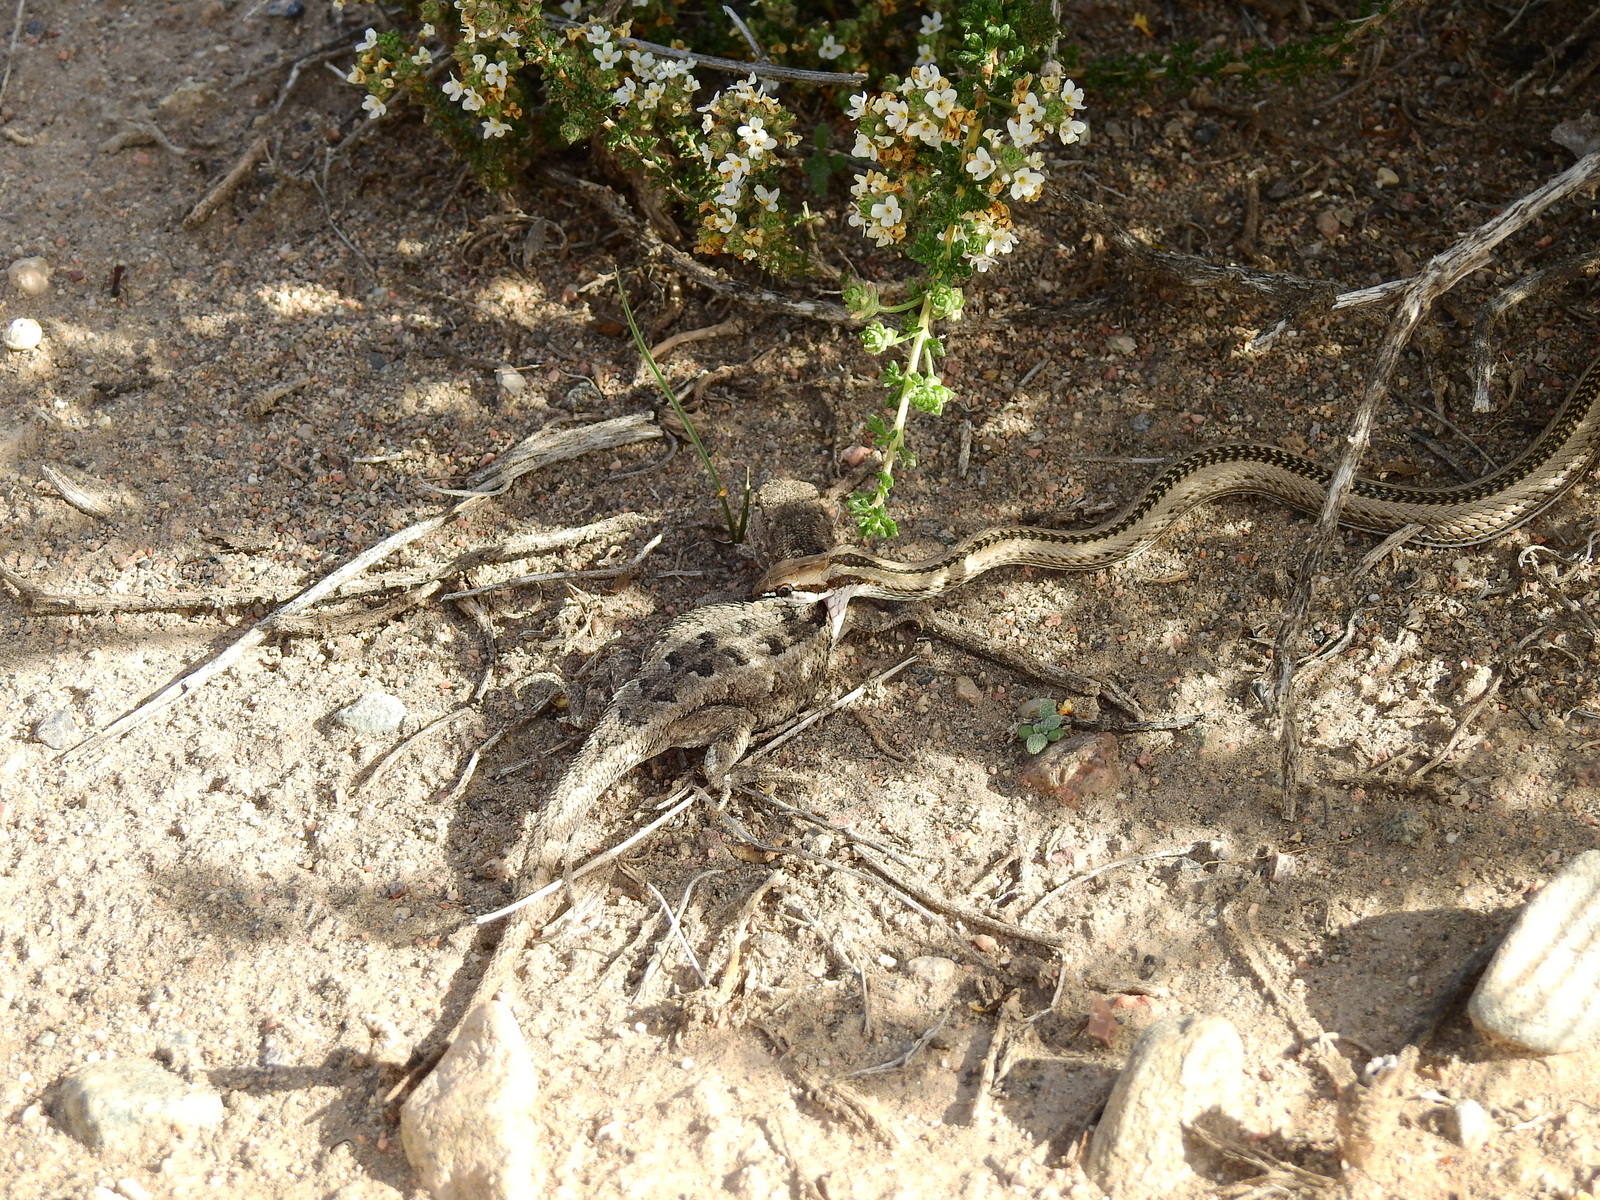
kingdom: Animalia
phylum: Chordata
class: Squamata
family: Colubridae
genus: Philodryas
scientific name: Philodryas psammophidea
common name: Günther's green racer
